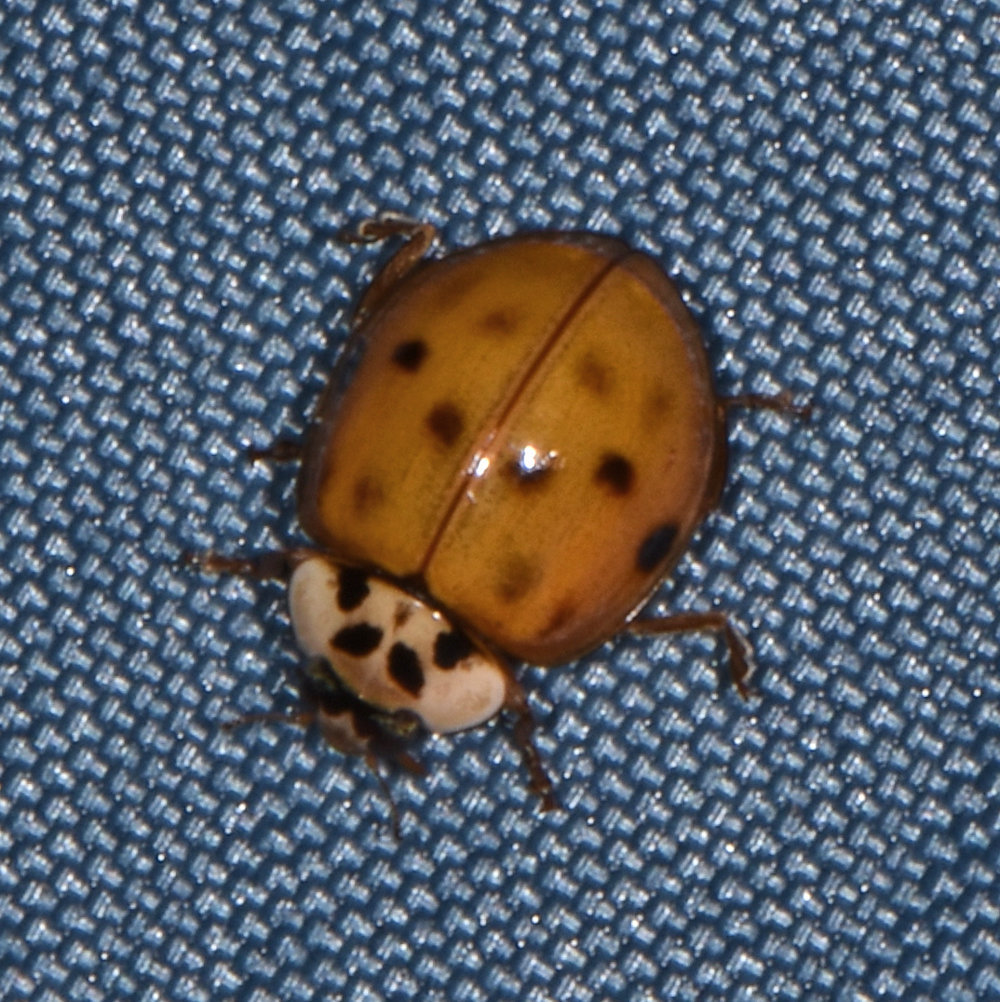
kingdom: Animalia
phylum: Arthropoda
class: Insecta
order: Coleoptera
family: Coccinellidae
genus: Harmonia
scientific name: Harmonia axyridis
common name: Harlequin ladybird
